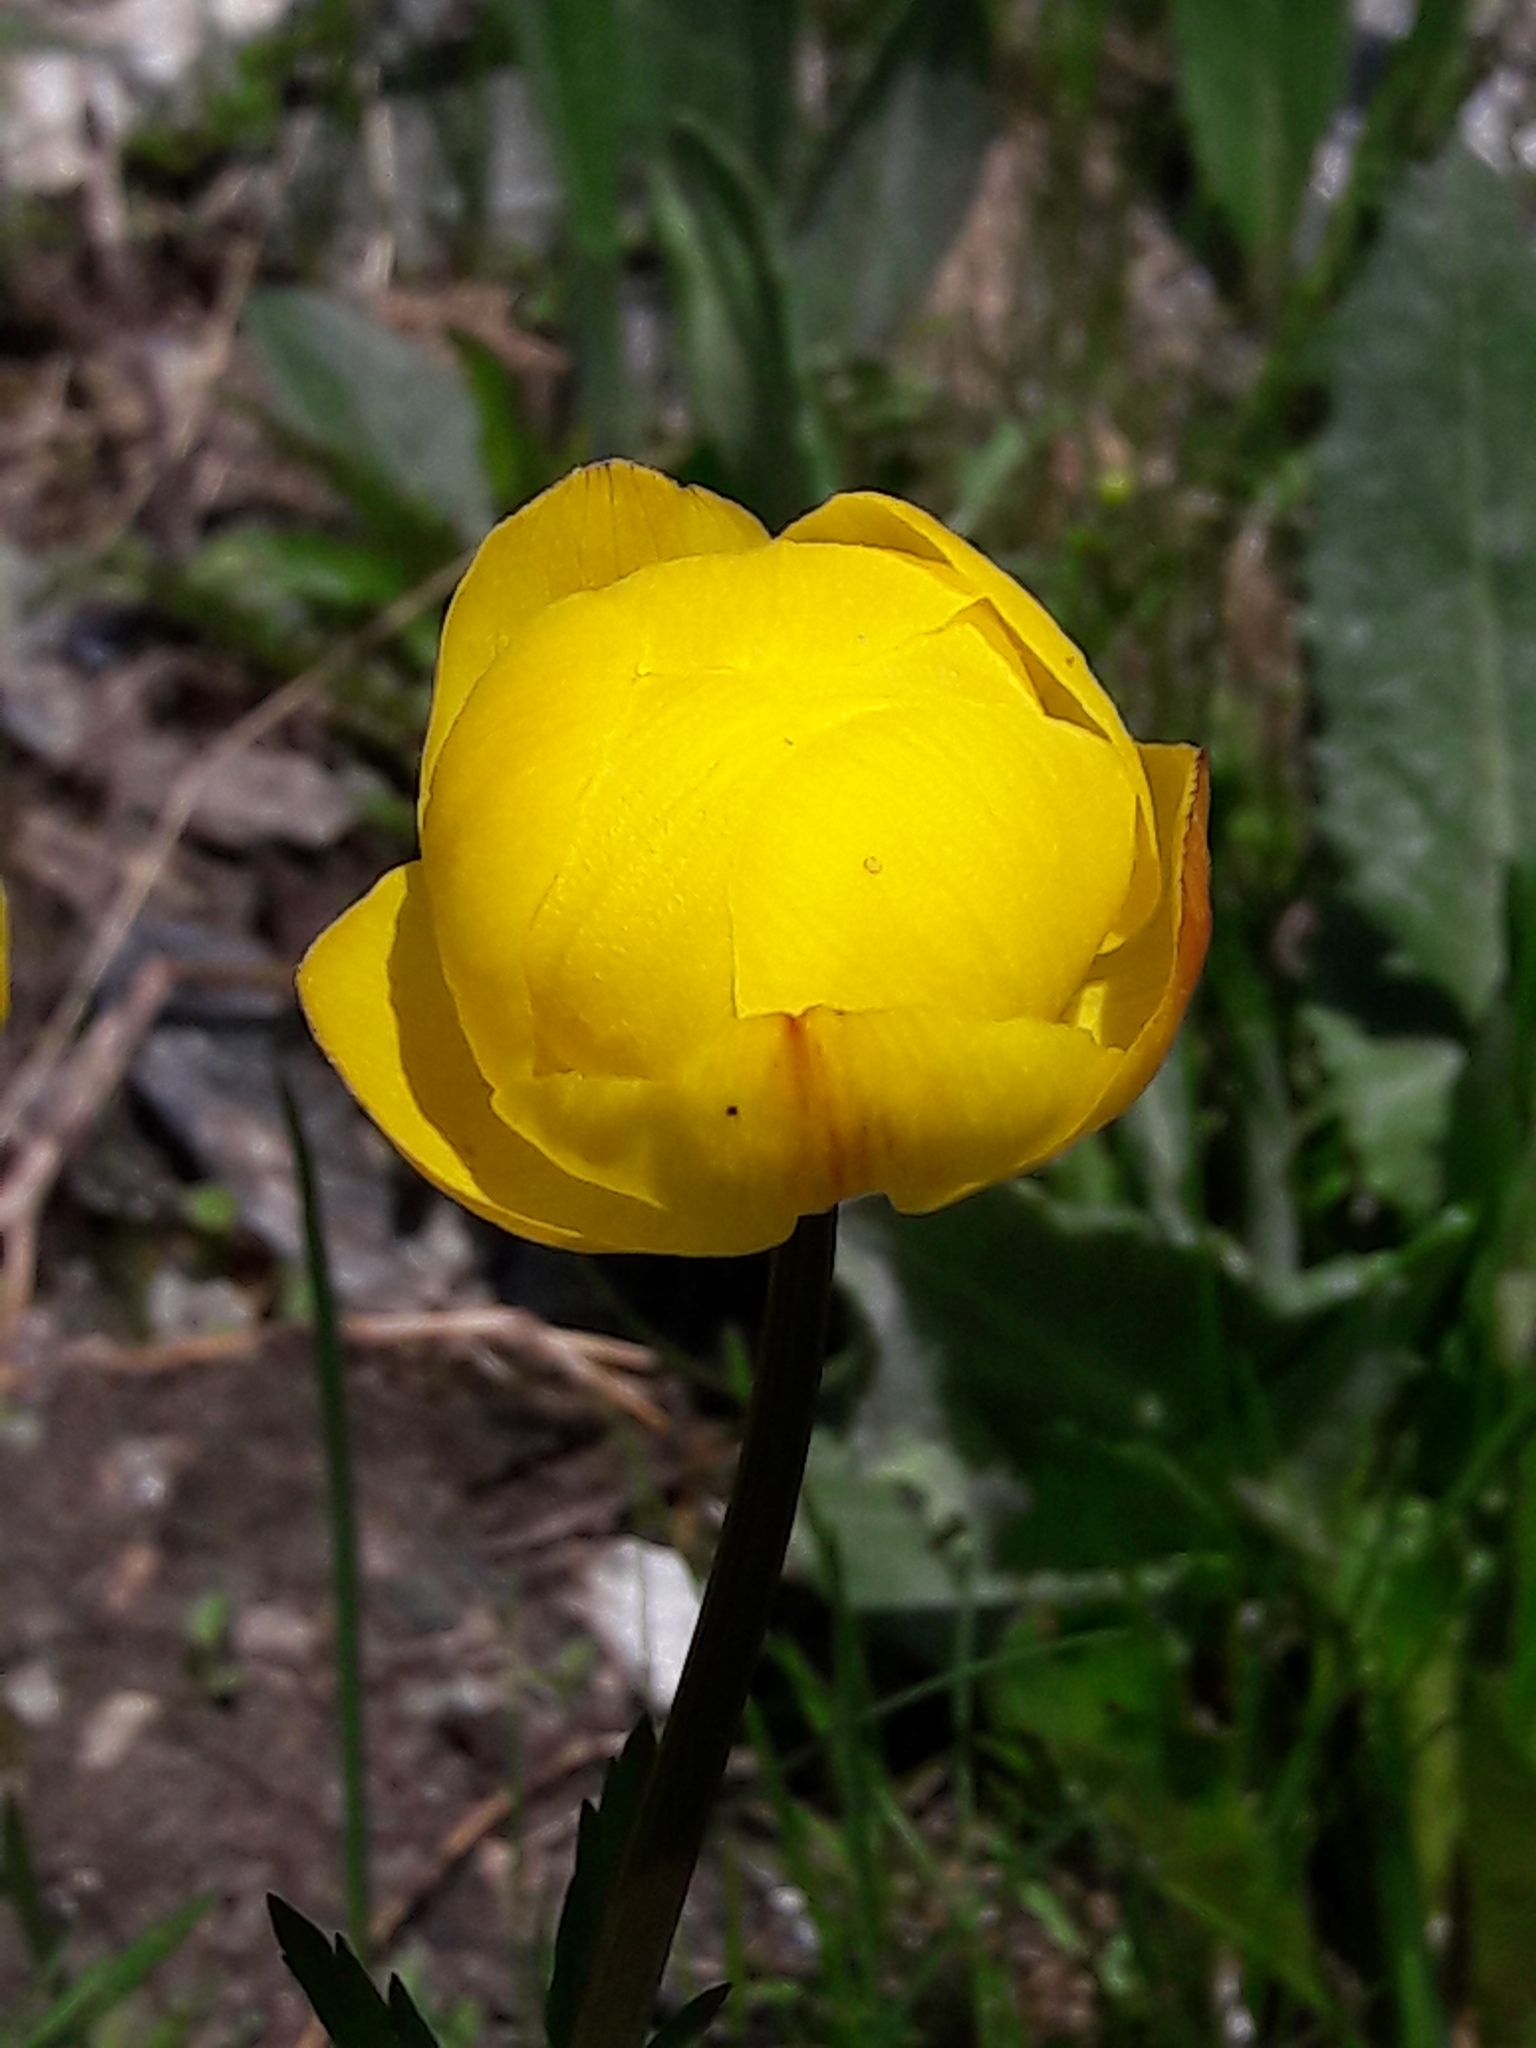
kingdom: Plantae
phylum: Tracheophyta
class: Magnoliopsida
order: Ranunculales
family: Ranunculaceae
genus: Trollius
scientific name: Trollius europaeus
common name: European globeflower
